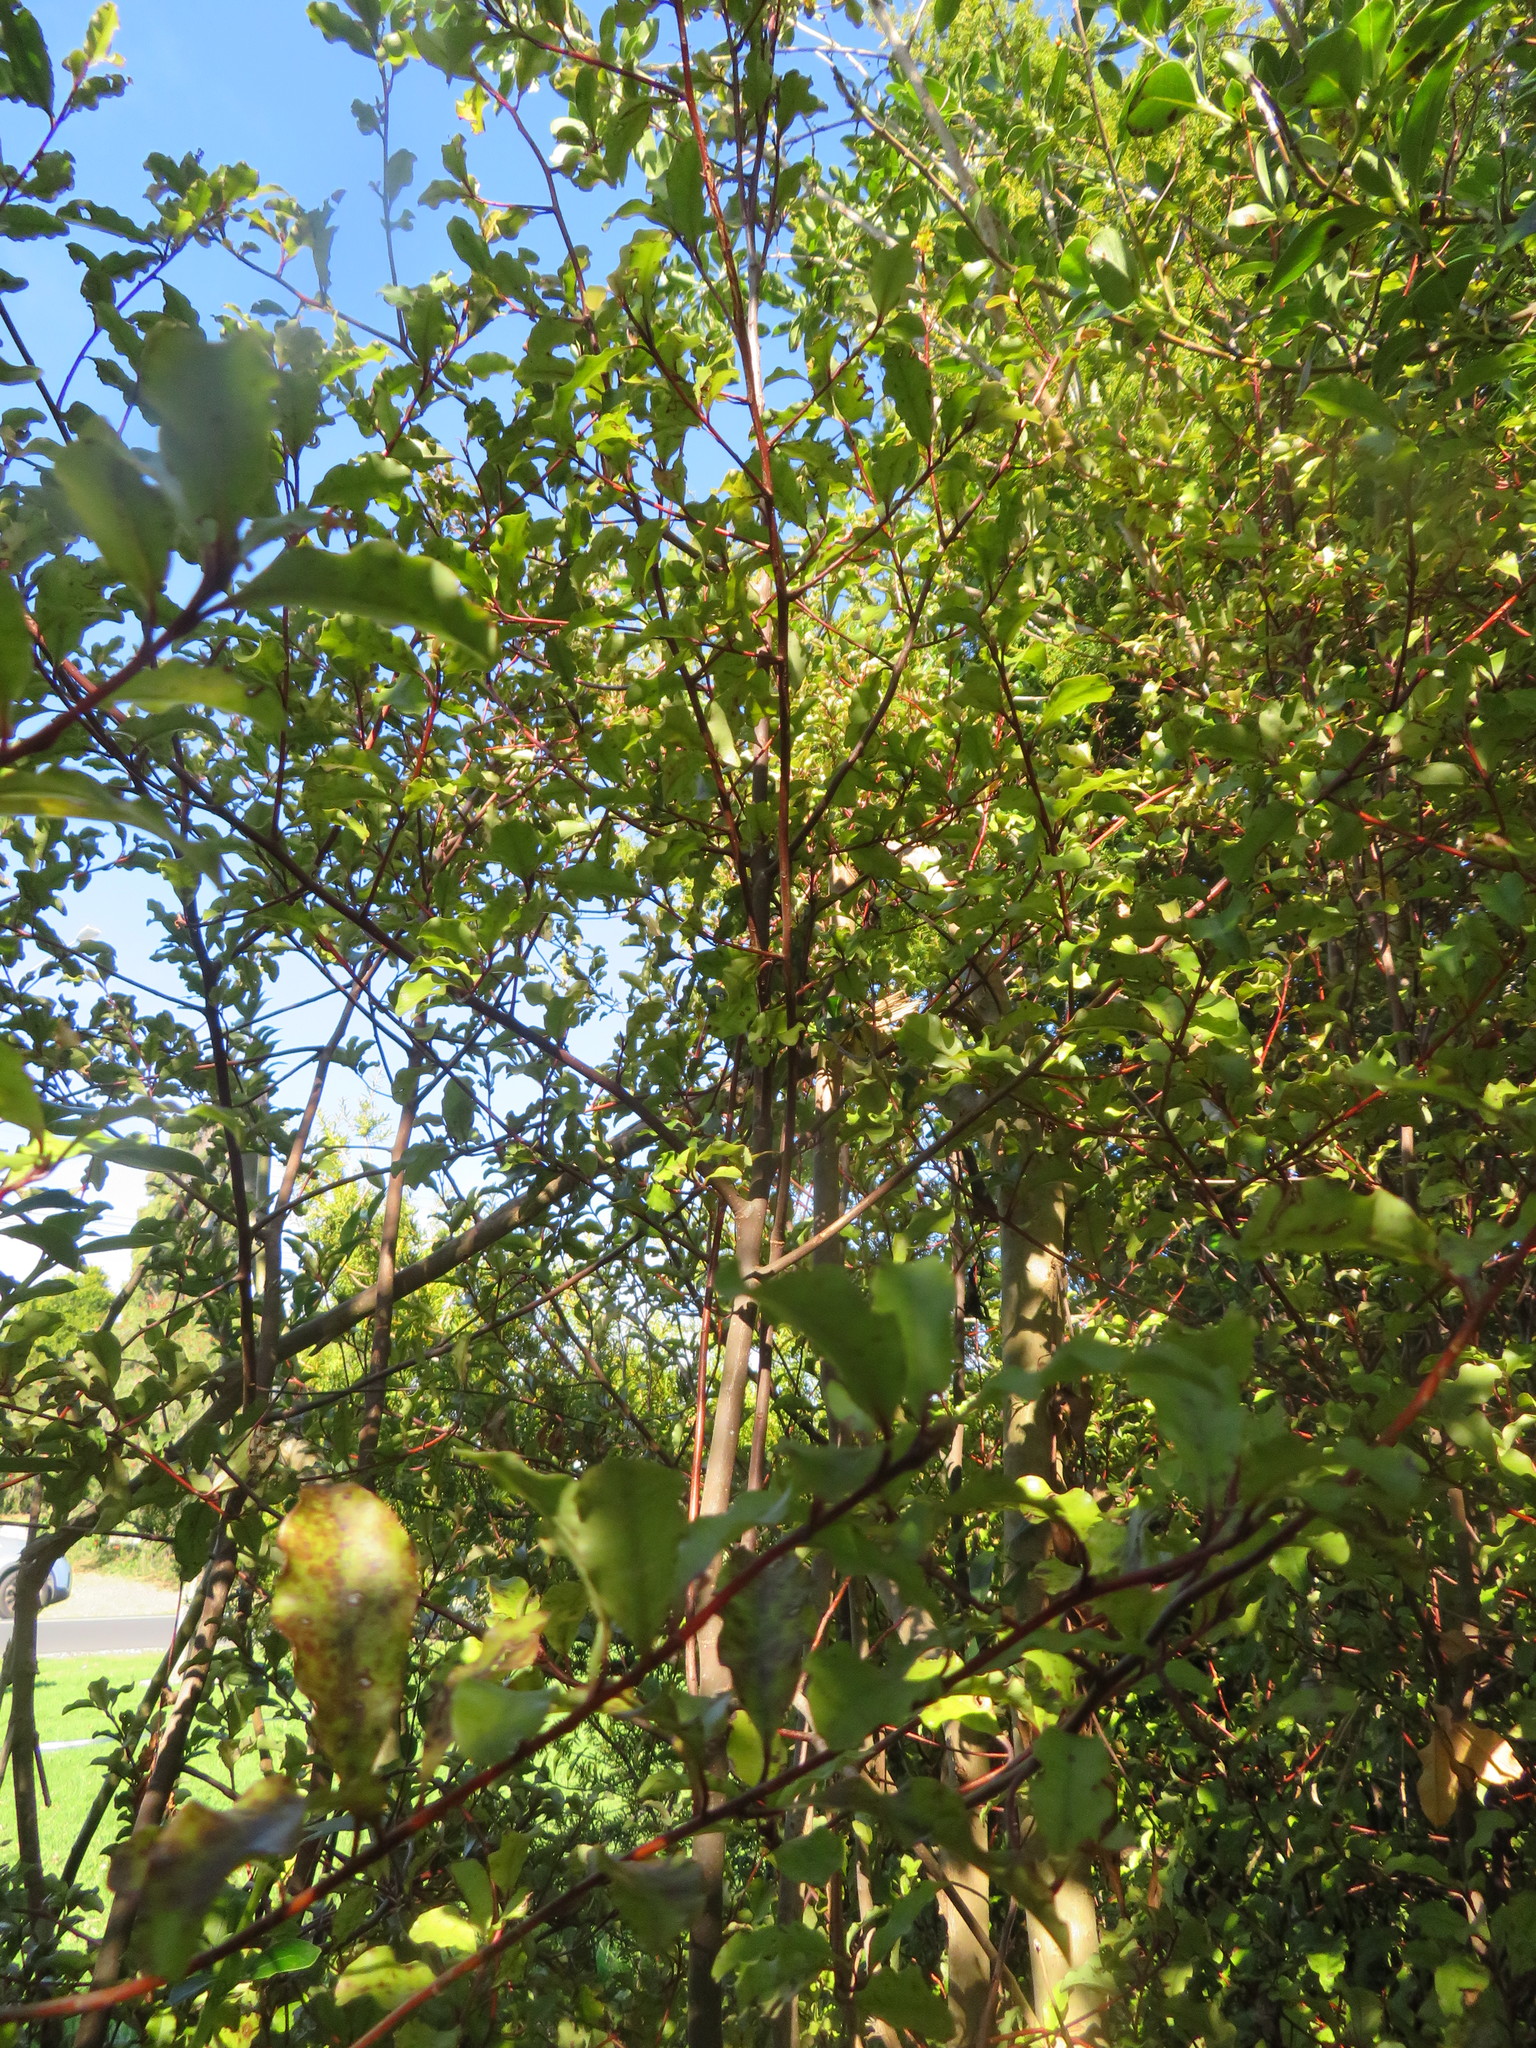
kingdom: Plantae
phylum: Tracheophyta
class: Magnoliopsida
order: Ericales
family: Primulaceae
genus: Myrsine
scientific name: Myrsine australis
